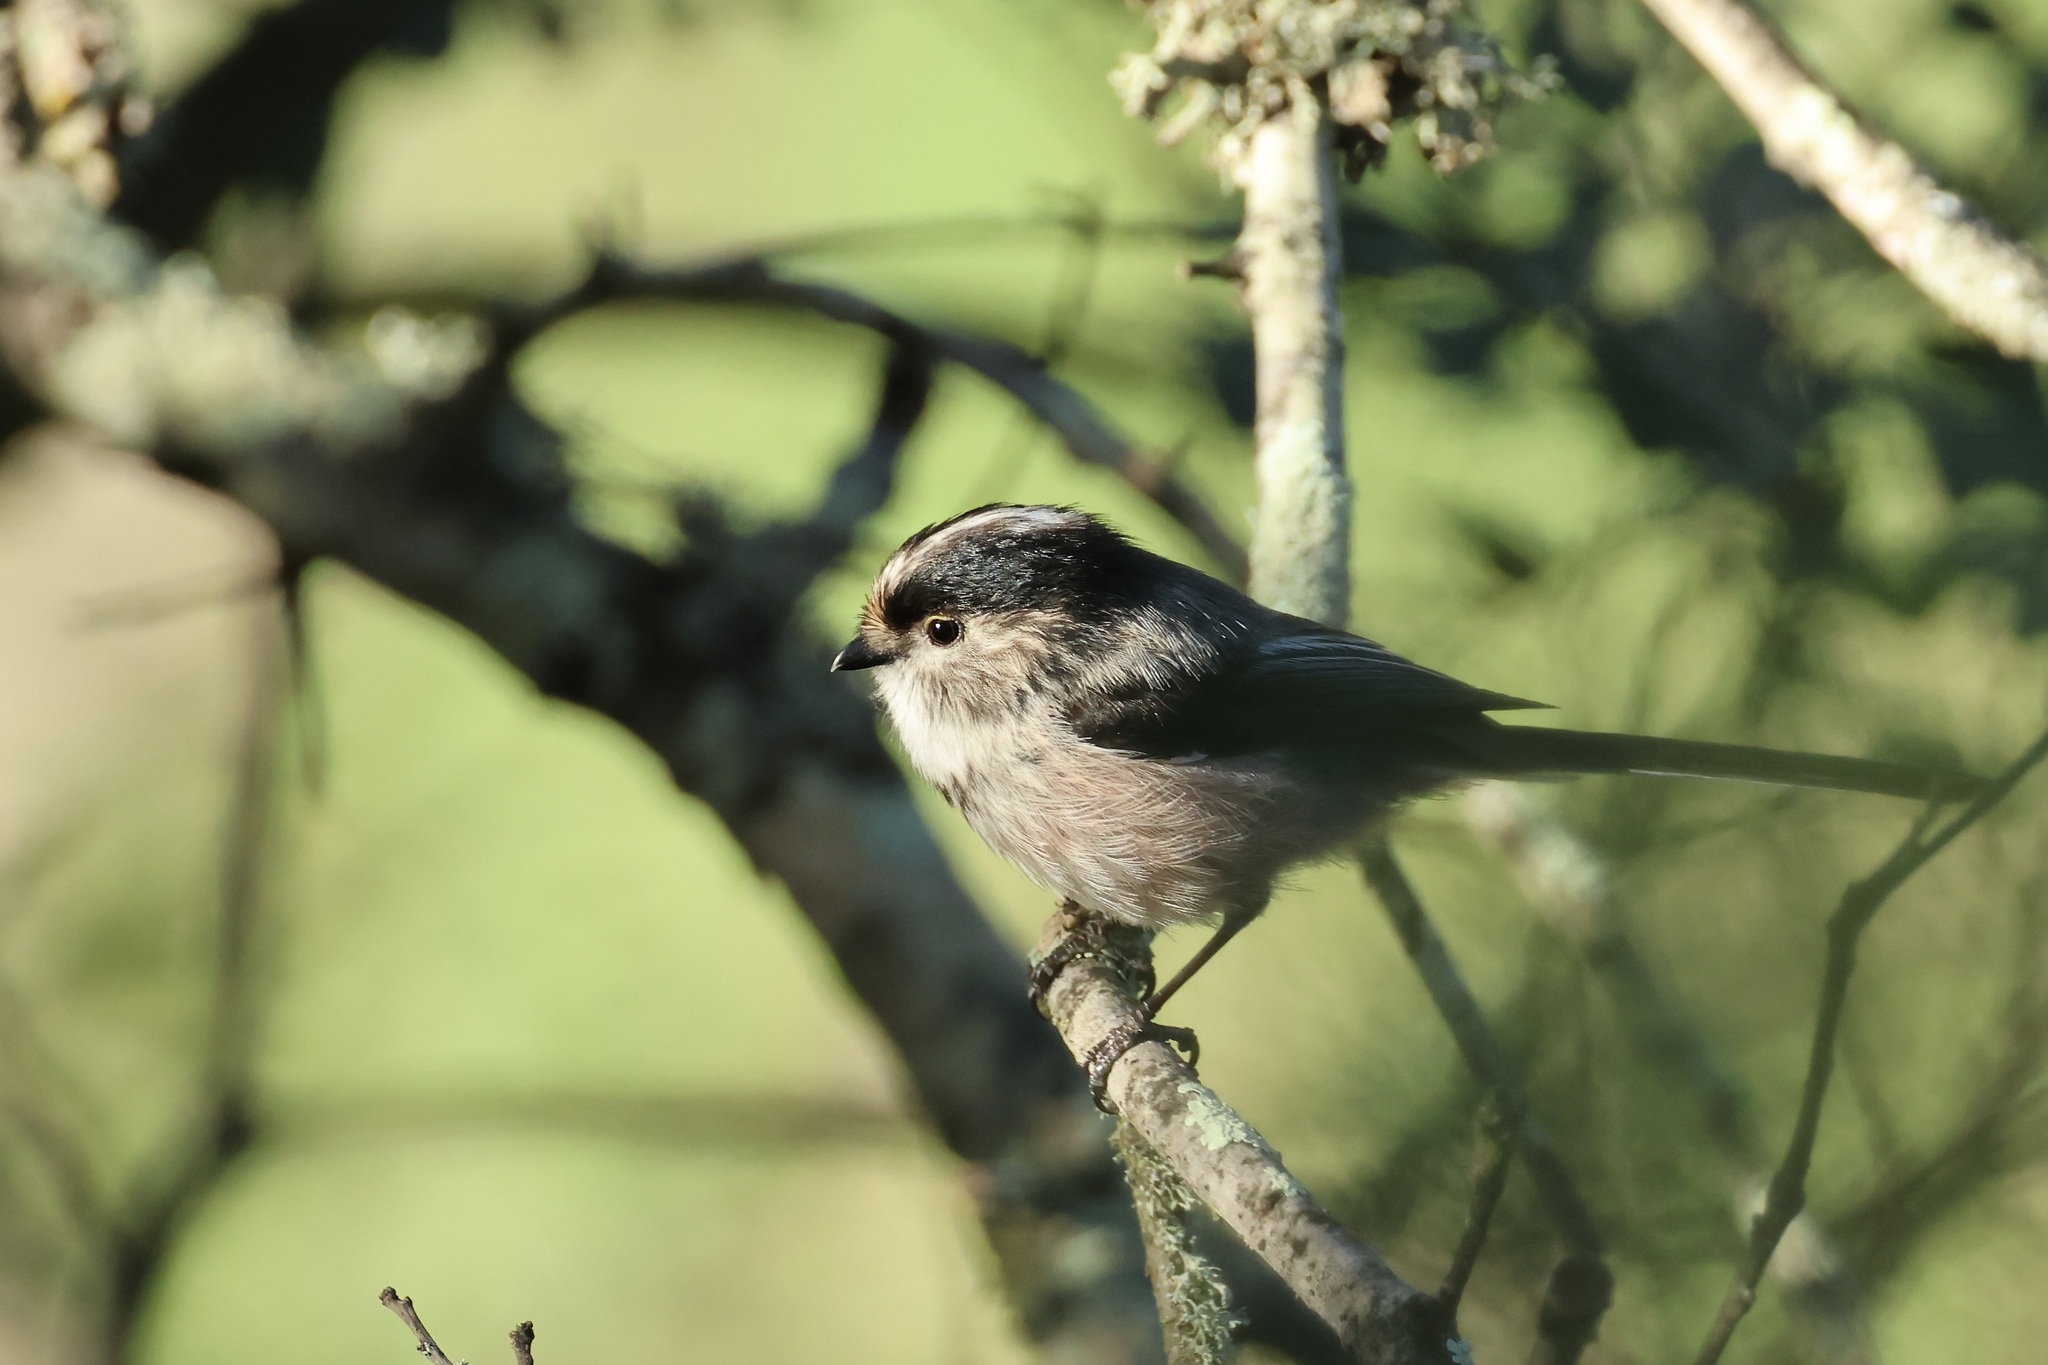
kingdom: Animalia
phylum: Chordata
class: Aves
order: Passeriformes
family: Aegithalidae
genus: Aegithalos
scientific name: Aegithalos caudatus
